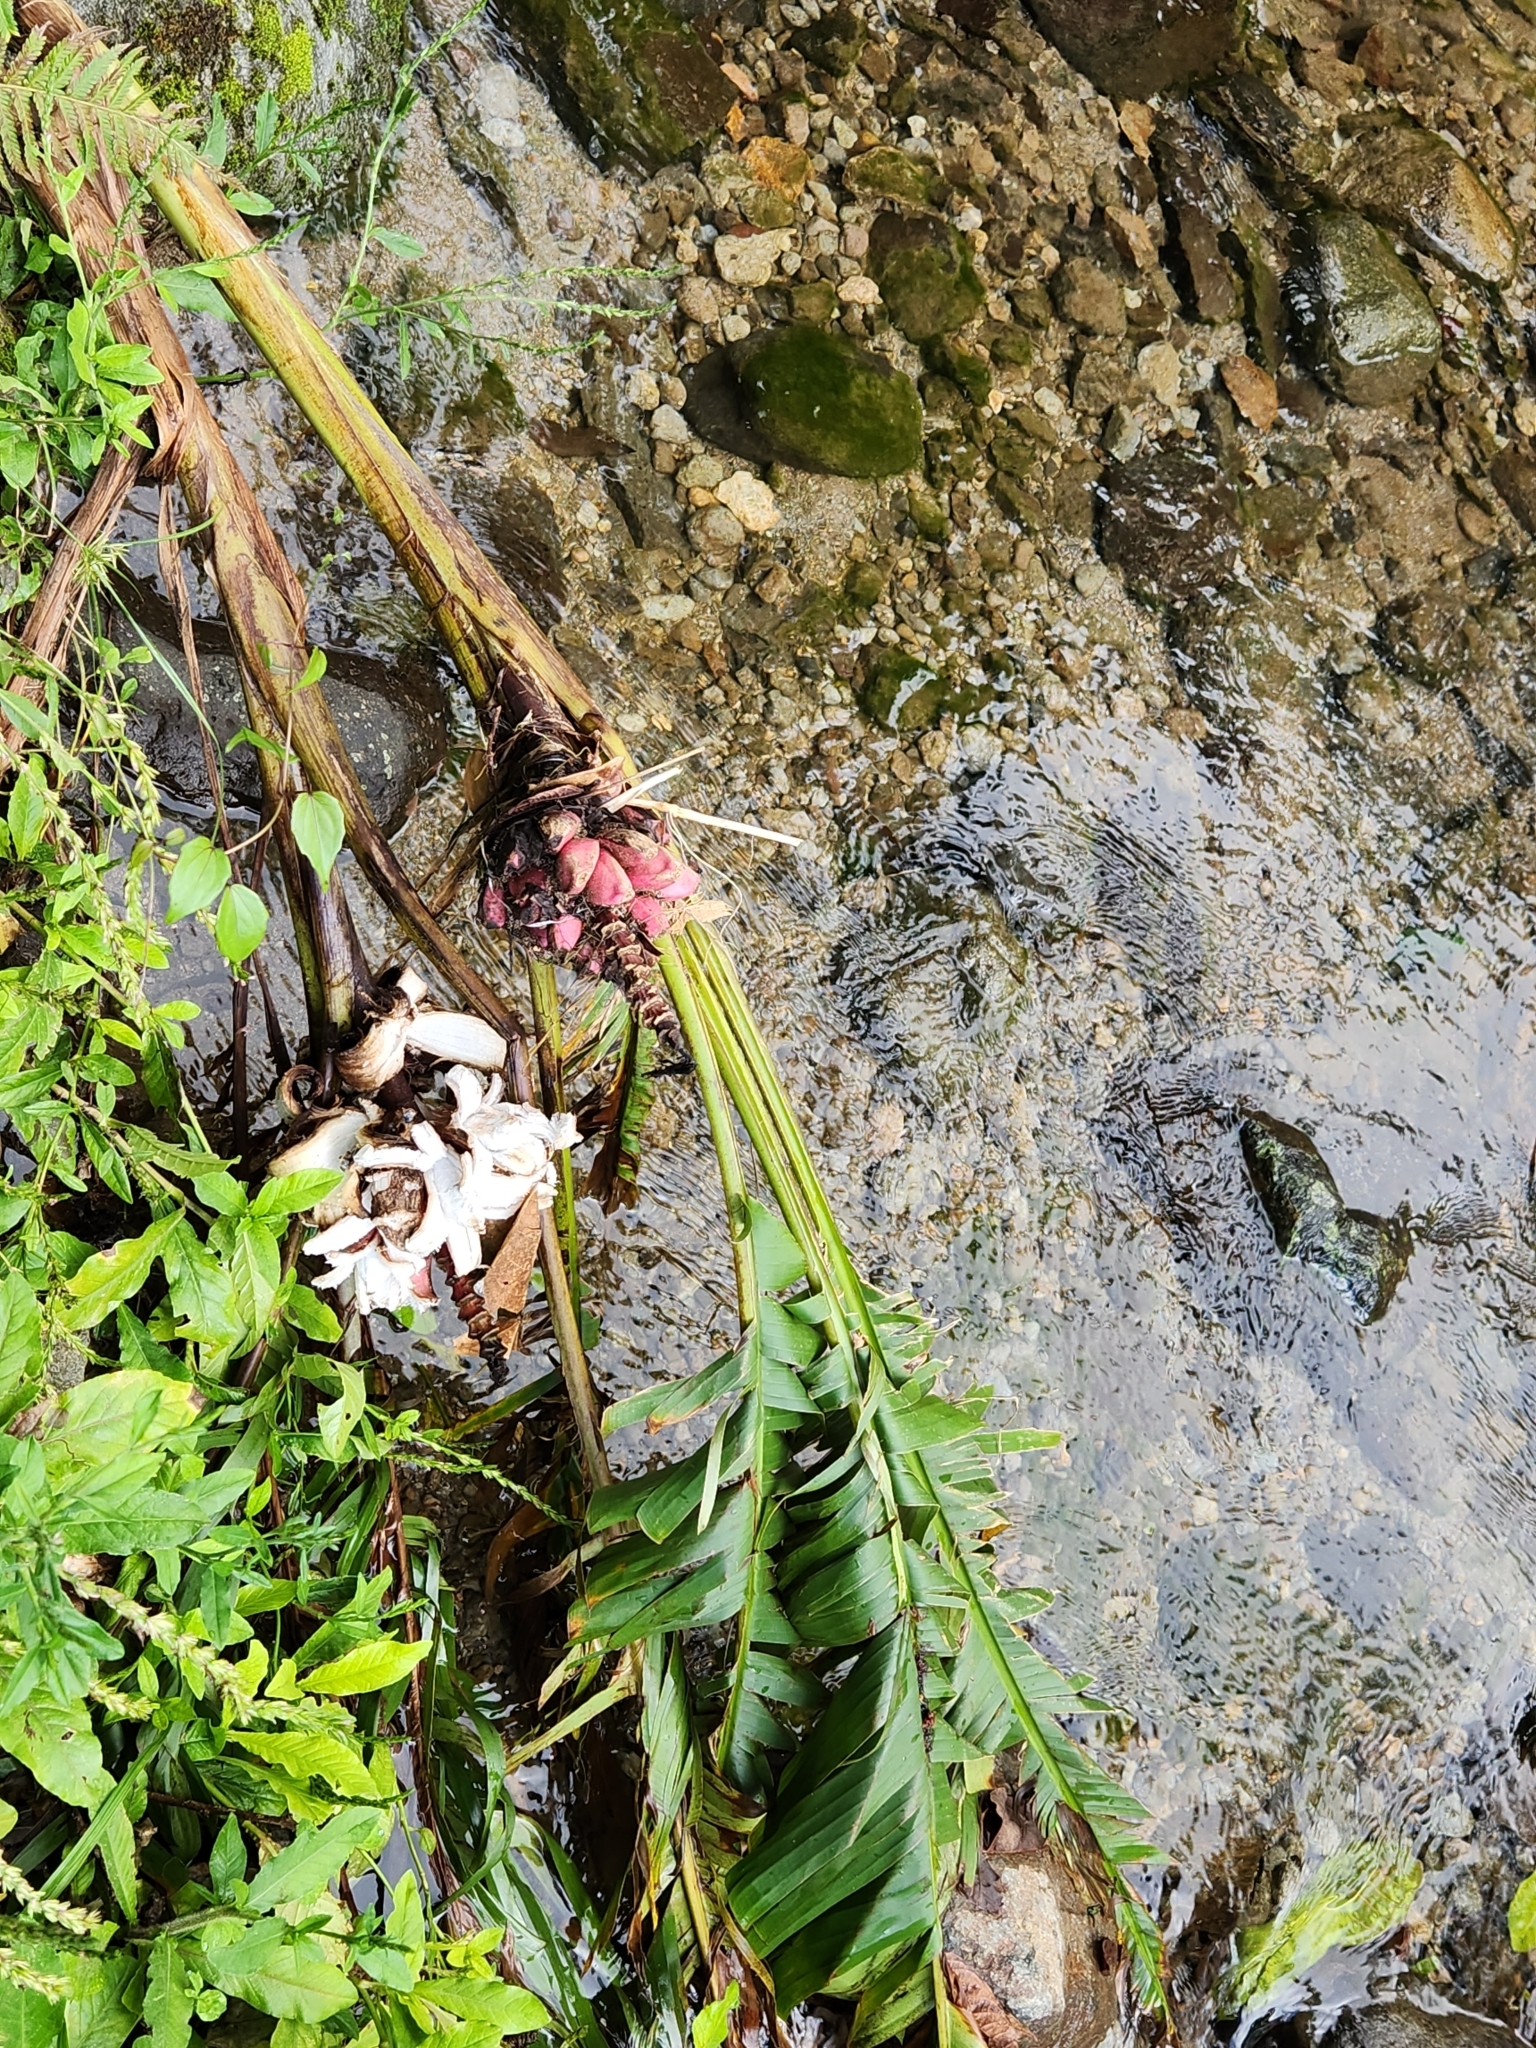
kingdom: Plantae
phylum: Tracheophyta
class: Liliopsida
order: Zingiberales
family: Musaceae
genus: Musa
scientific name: Musa velutina
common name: Pink velvet banana
